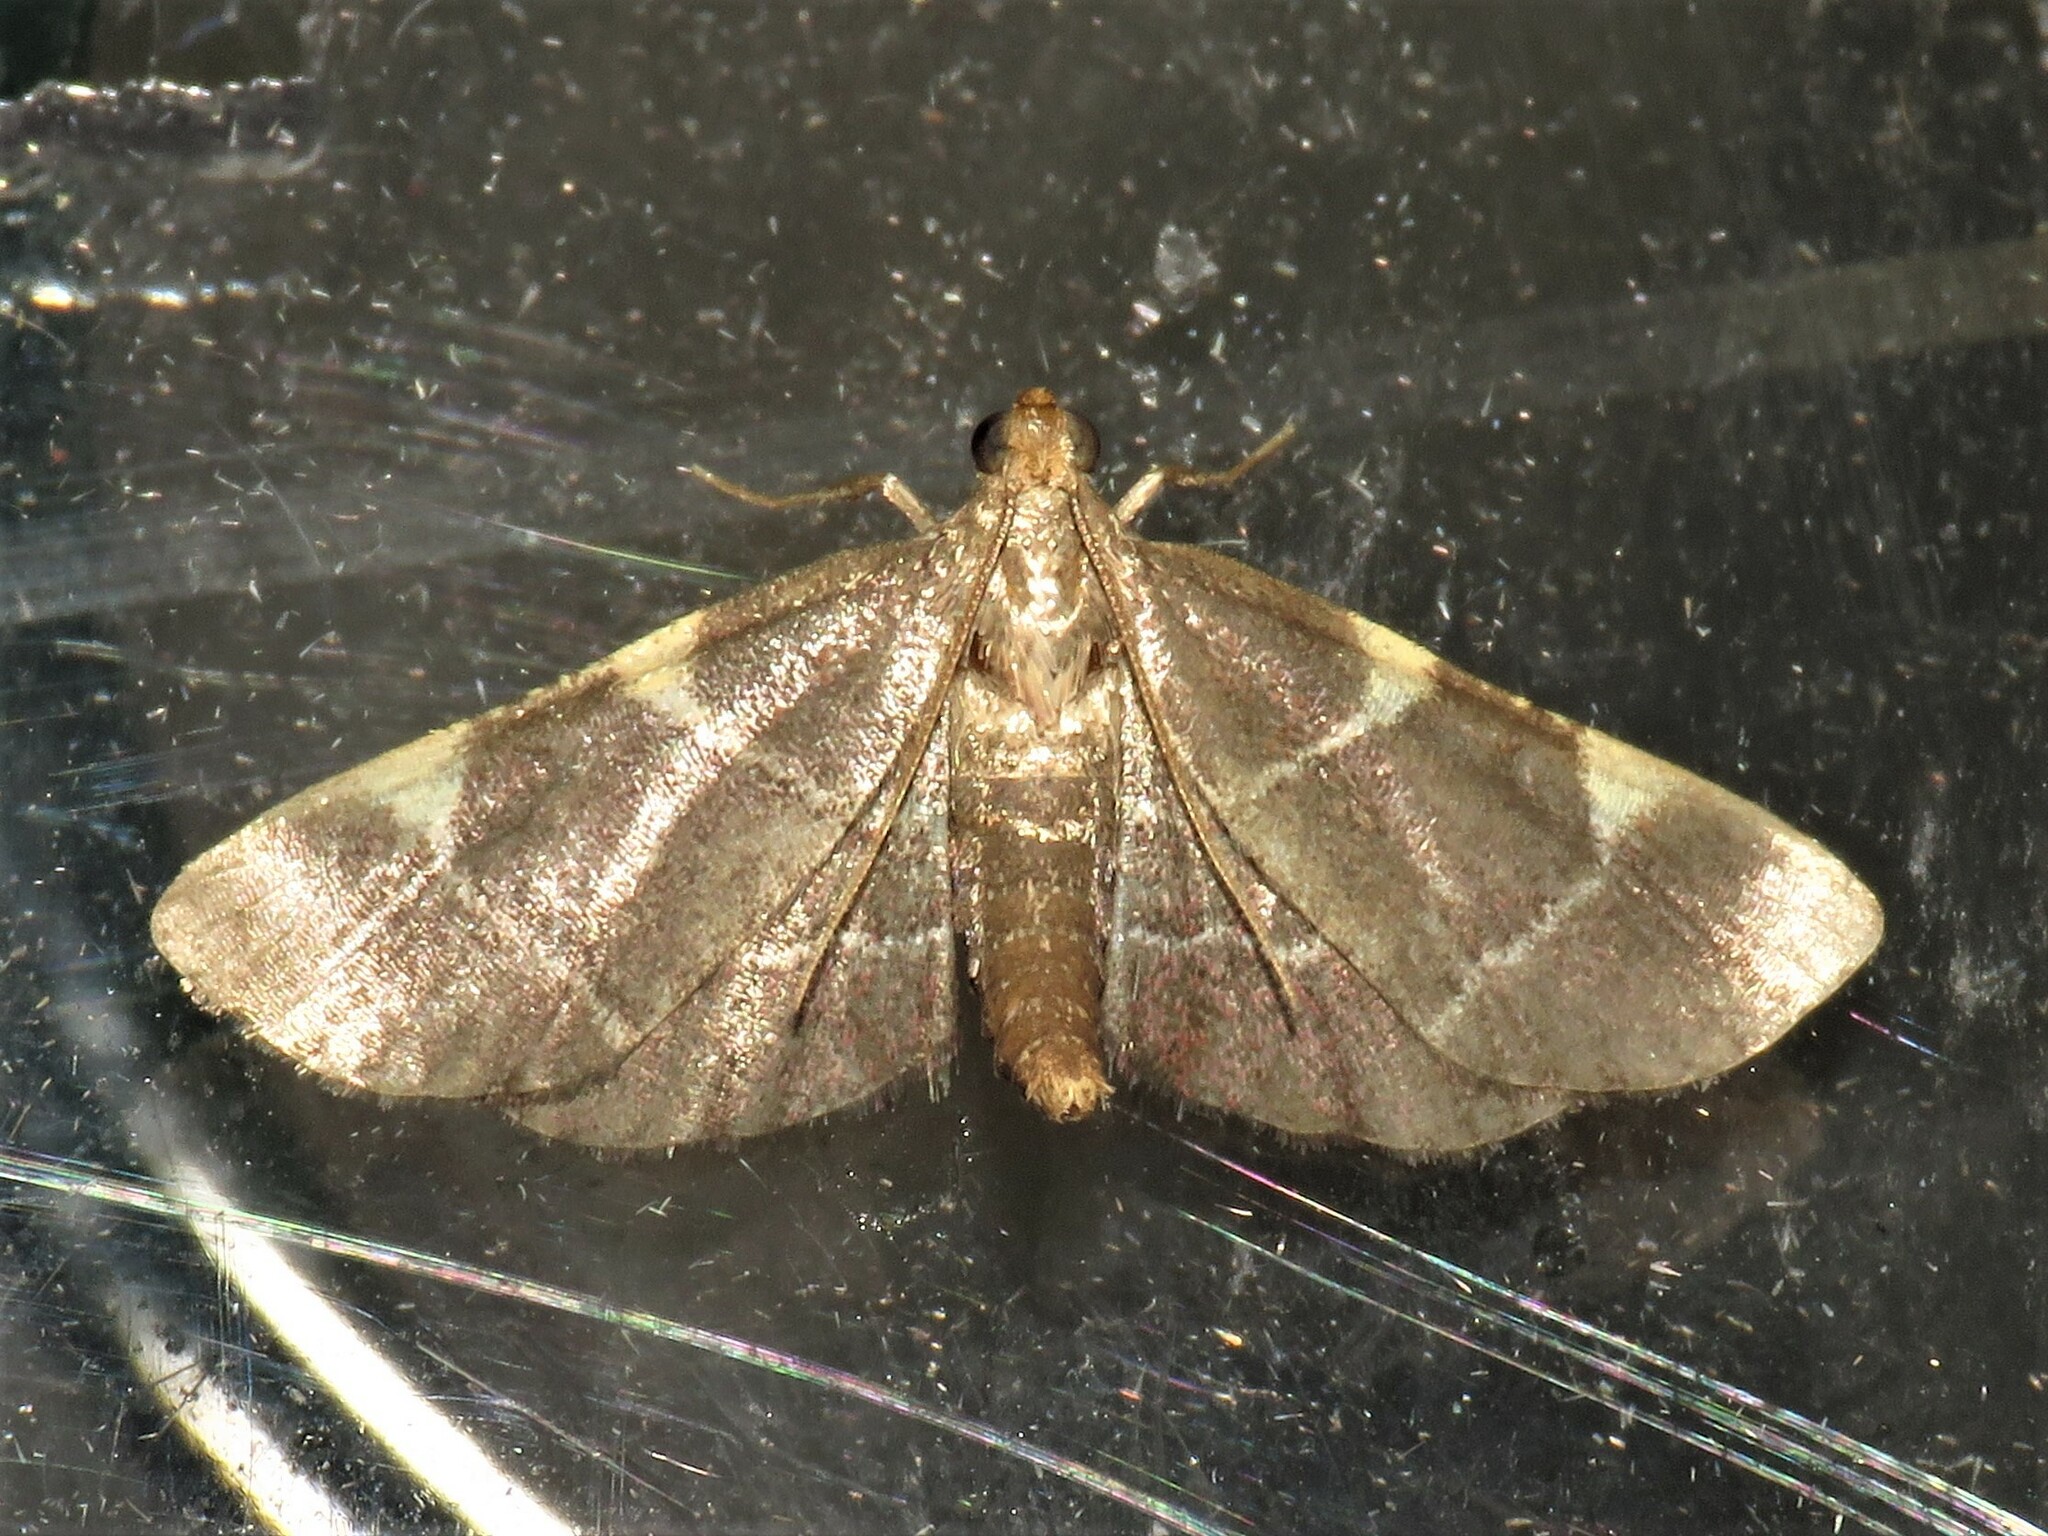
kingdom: Animalia
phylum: Arthropoda
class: Insecta
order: Lepidoptera
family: Pyralidae
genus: Hypsopygia
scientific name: Hypsopygia olinalis
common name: Yellow-fringed dolichomia moth
